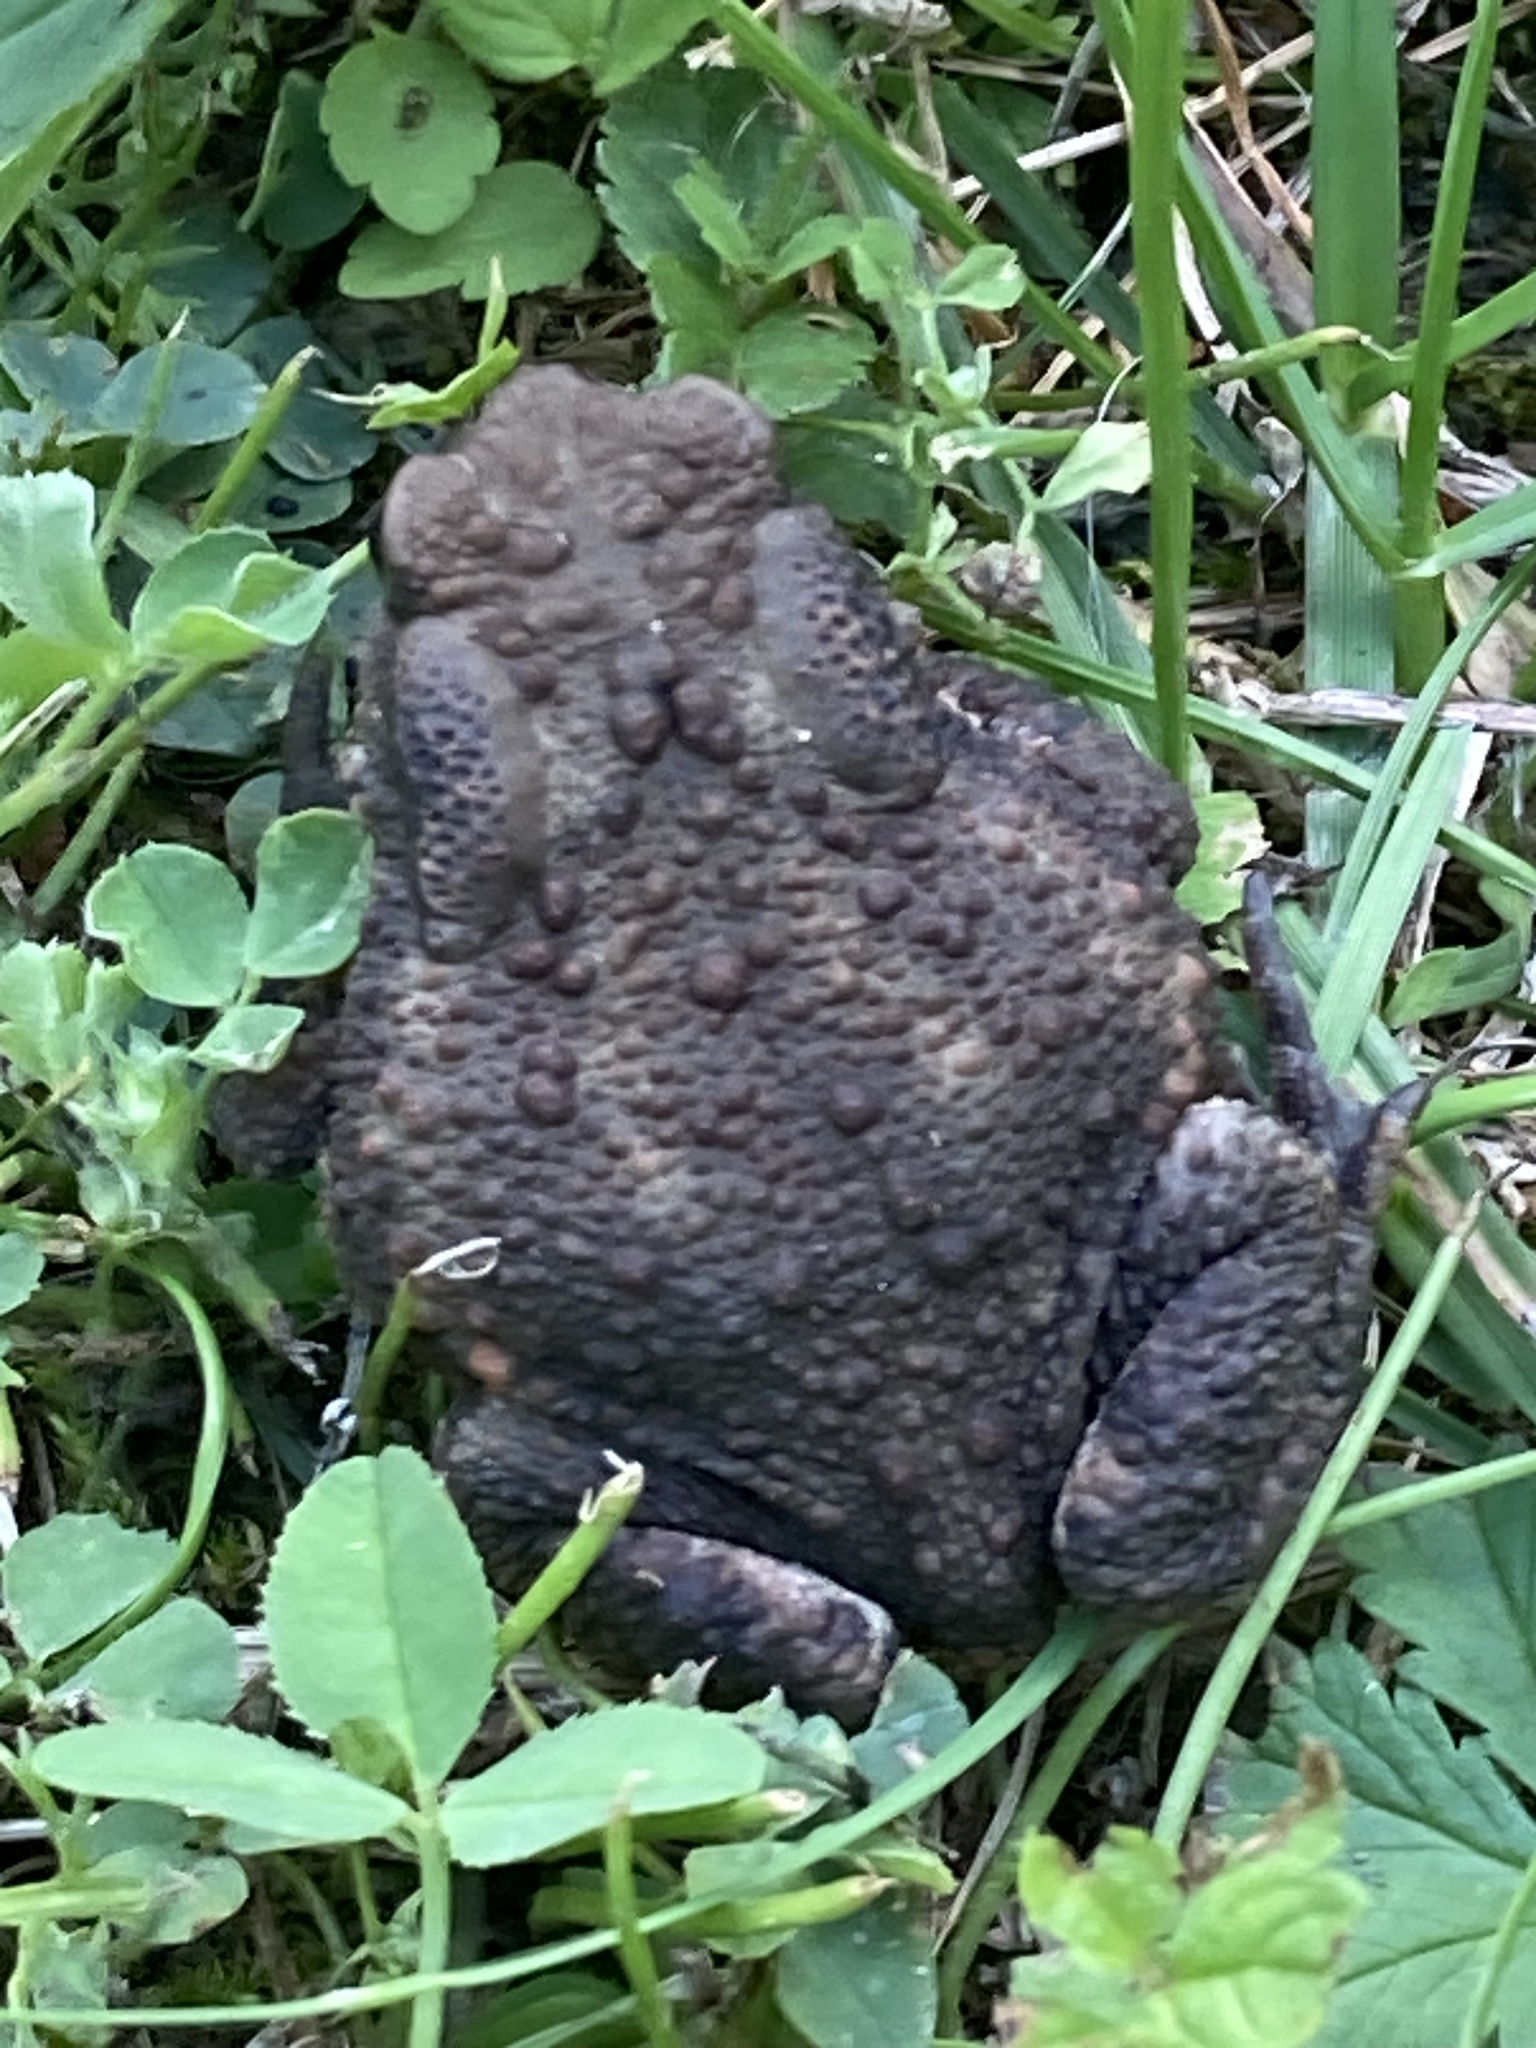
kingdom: Animalia
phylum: Chordata
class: Amphibia
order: Anura
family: Bufonidae
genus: Bufo
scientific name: Bufo bufo
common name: Common toad
